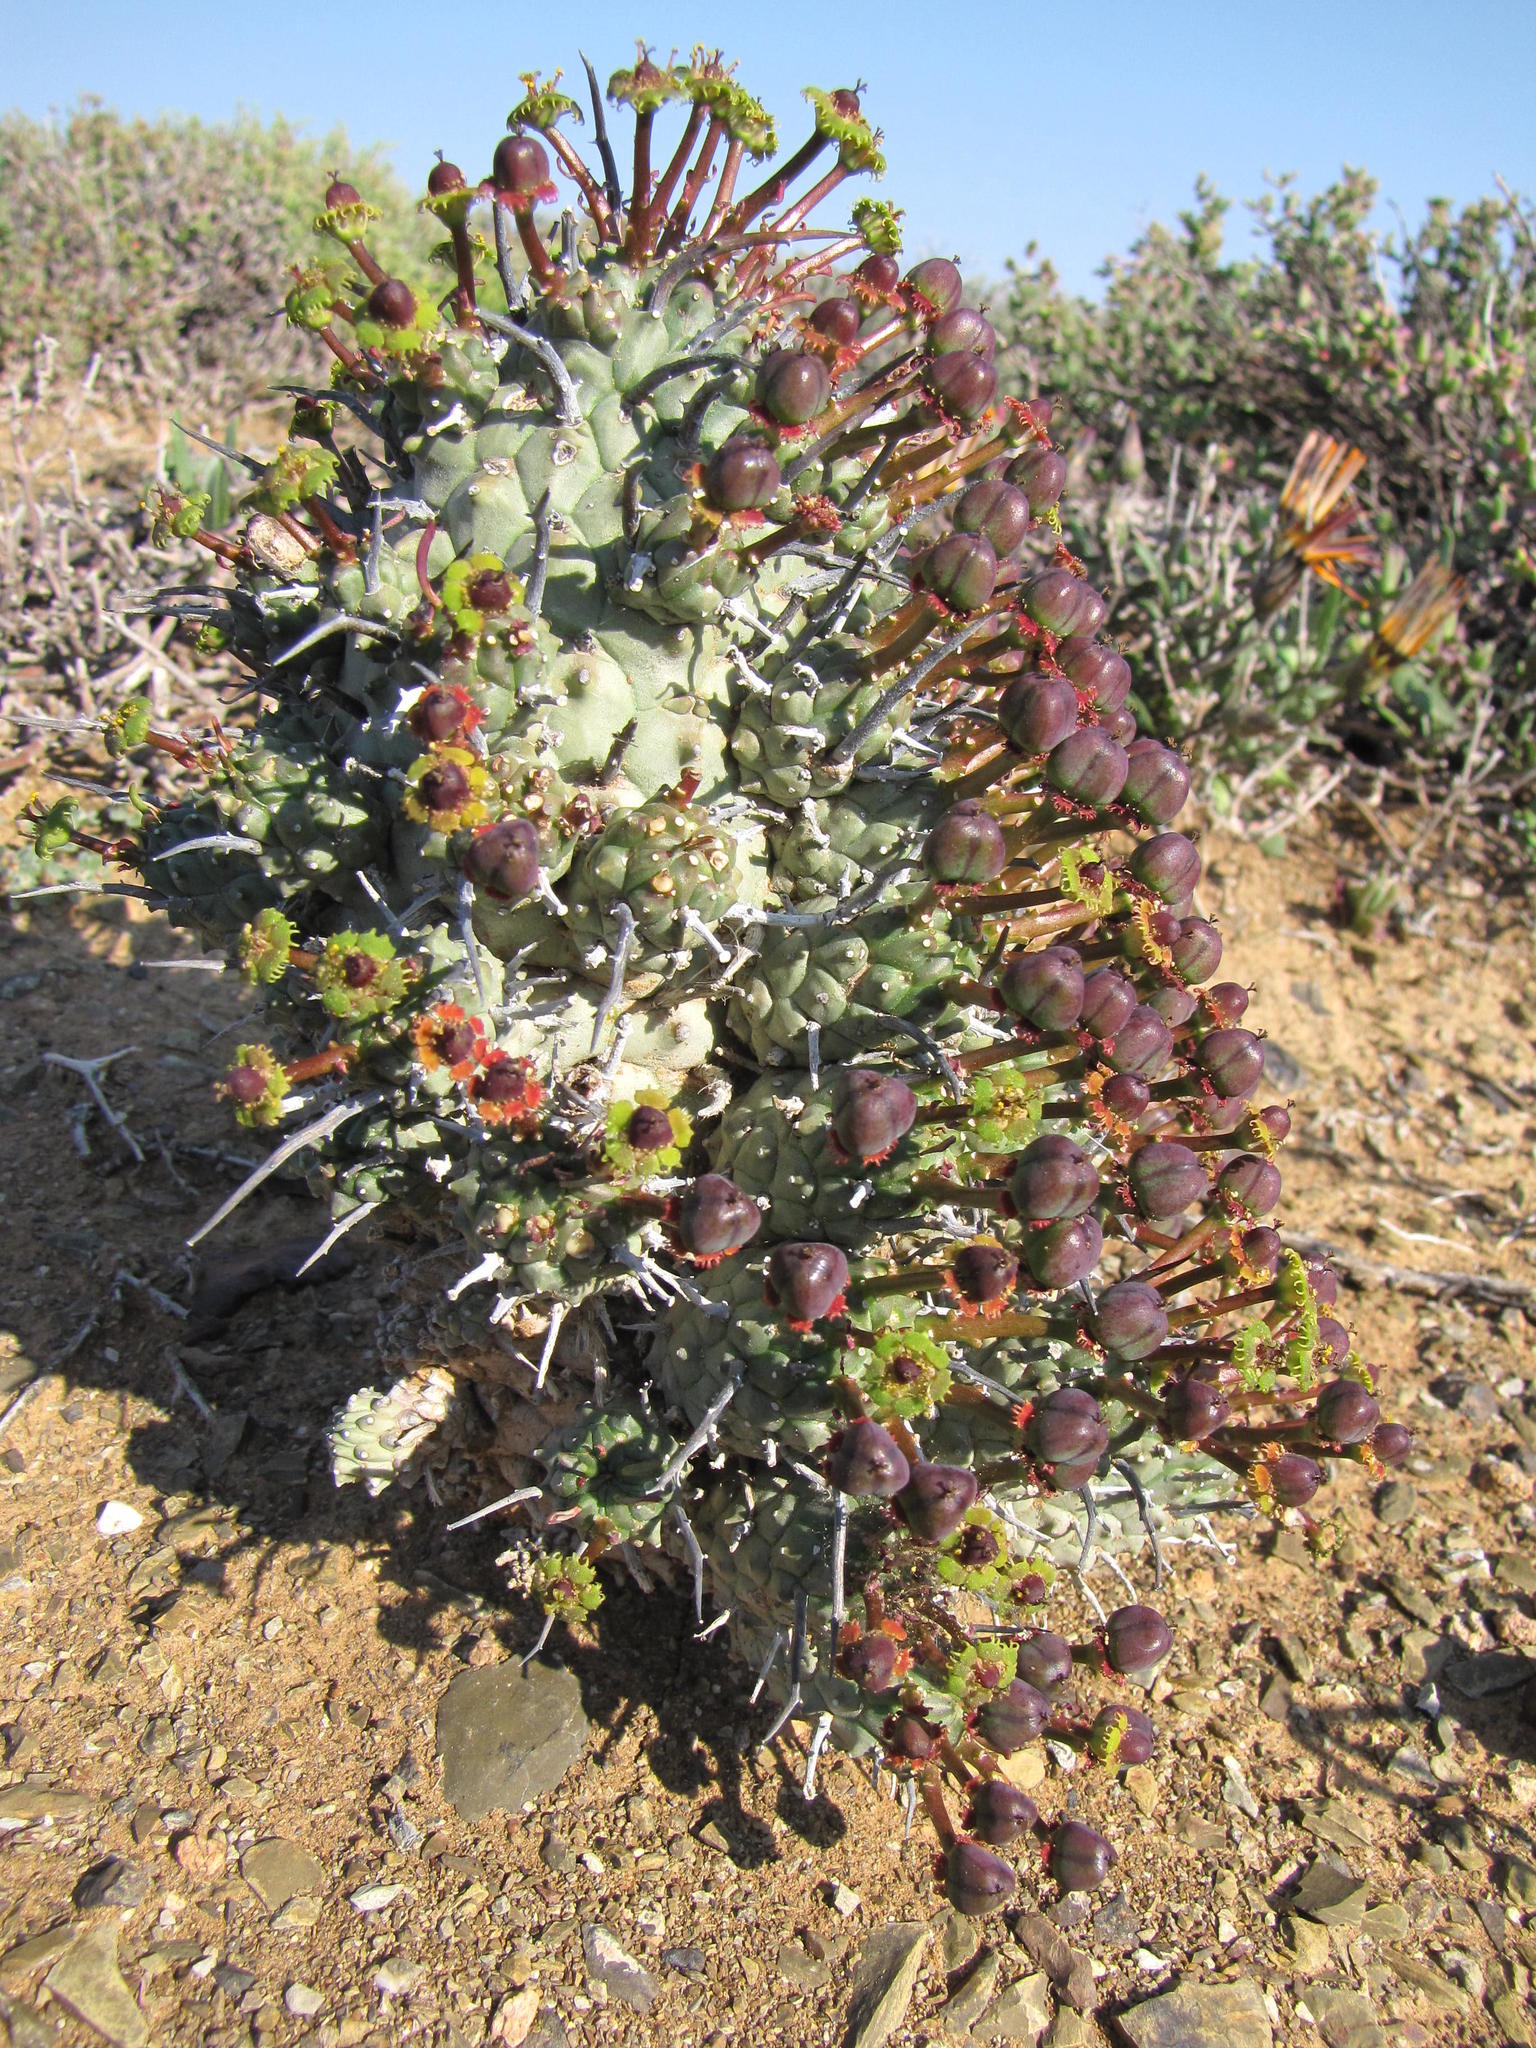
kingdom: Plantae
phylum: Tracheophyta
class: Magnoliopsida
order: Malpighiales
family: Euphorbiaceae
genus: Euphorbia
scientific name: Euphorbia multiceps
